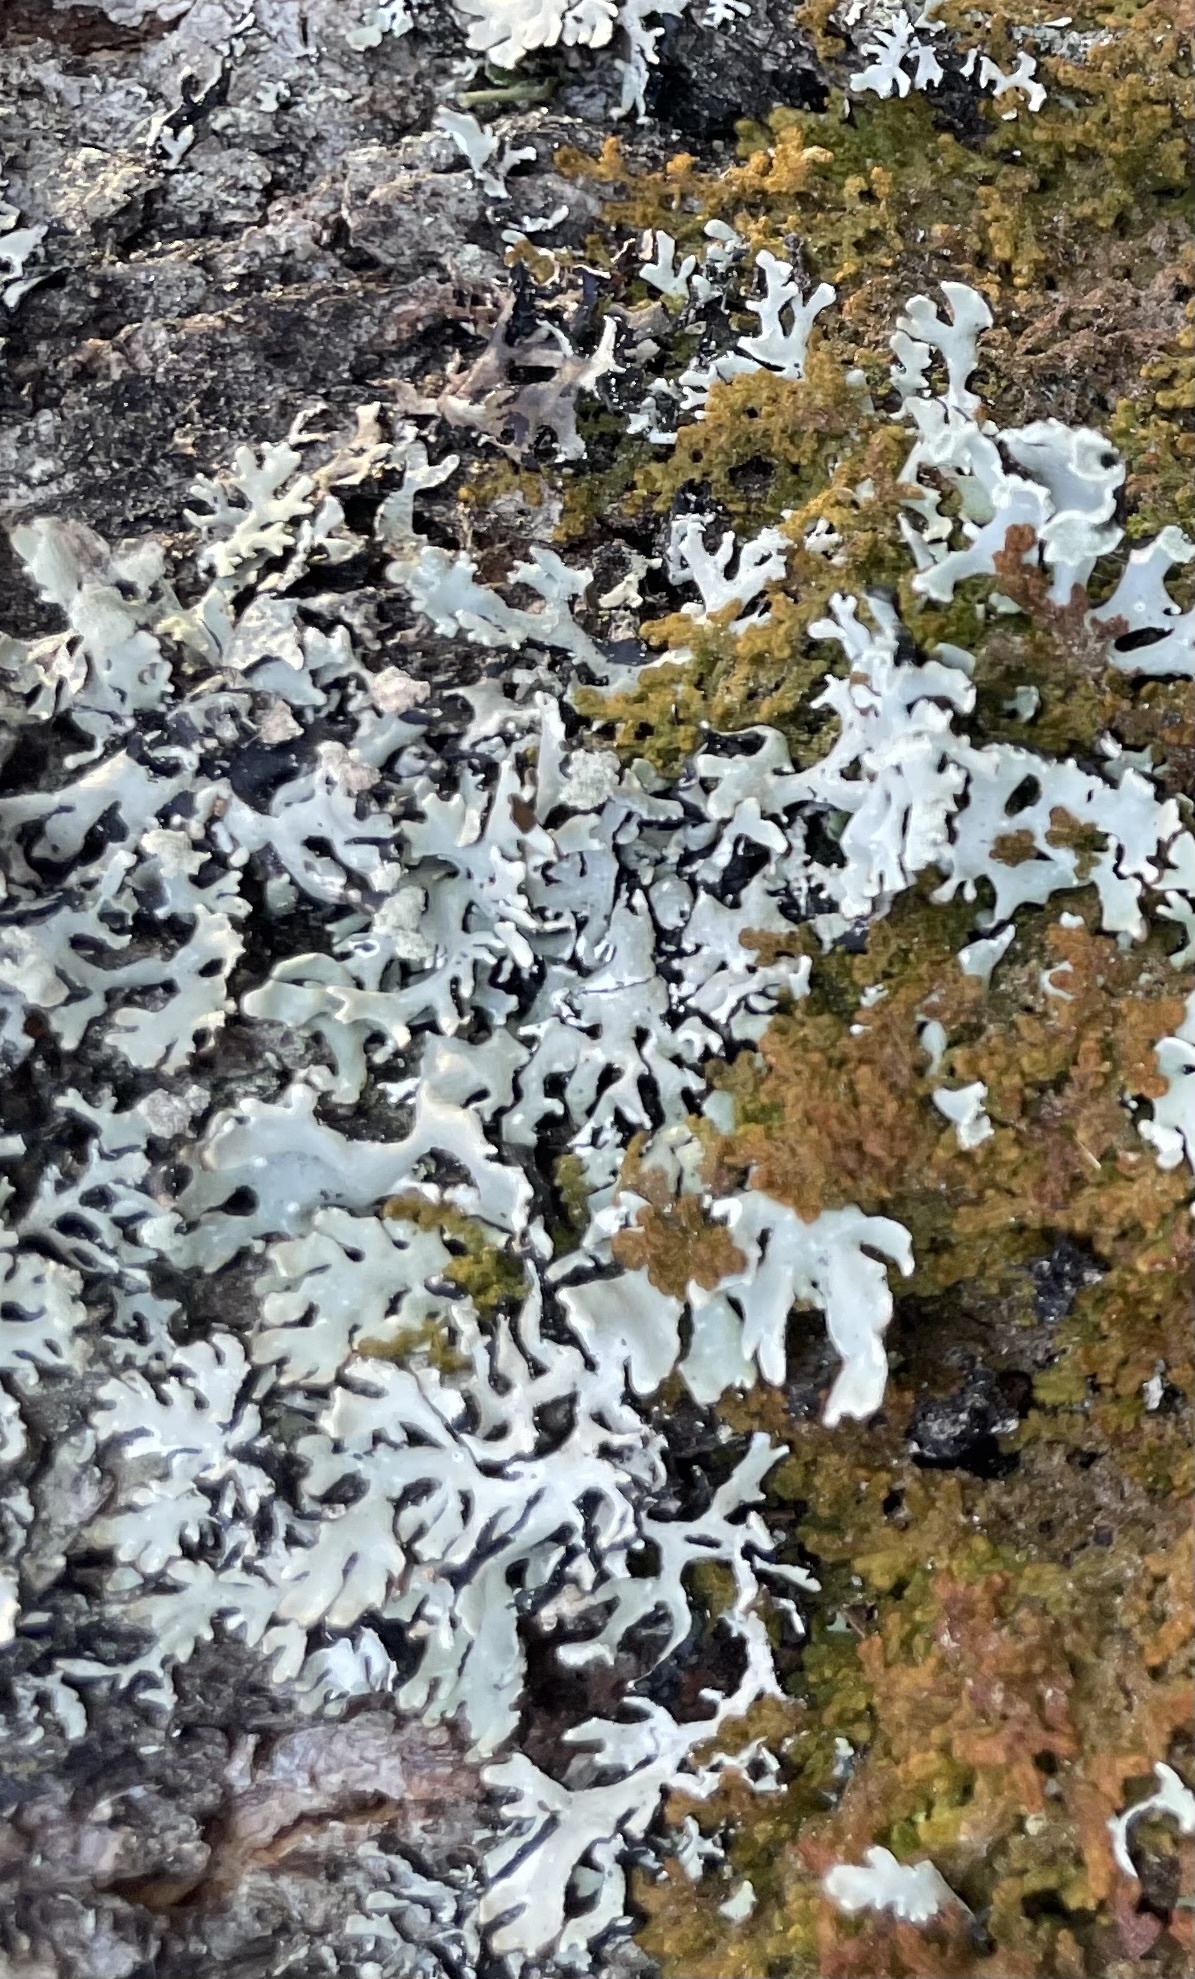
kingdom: Fungi
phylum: Ascomycota
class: Lecanoromycetes
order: Lecanorales
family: Parmeliaceae
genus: Hypogymnia
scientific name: Hypogymnia physodes
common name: Dark crottle
